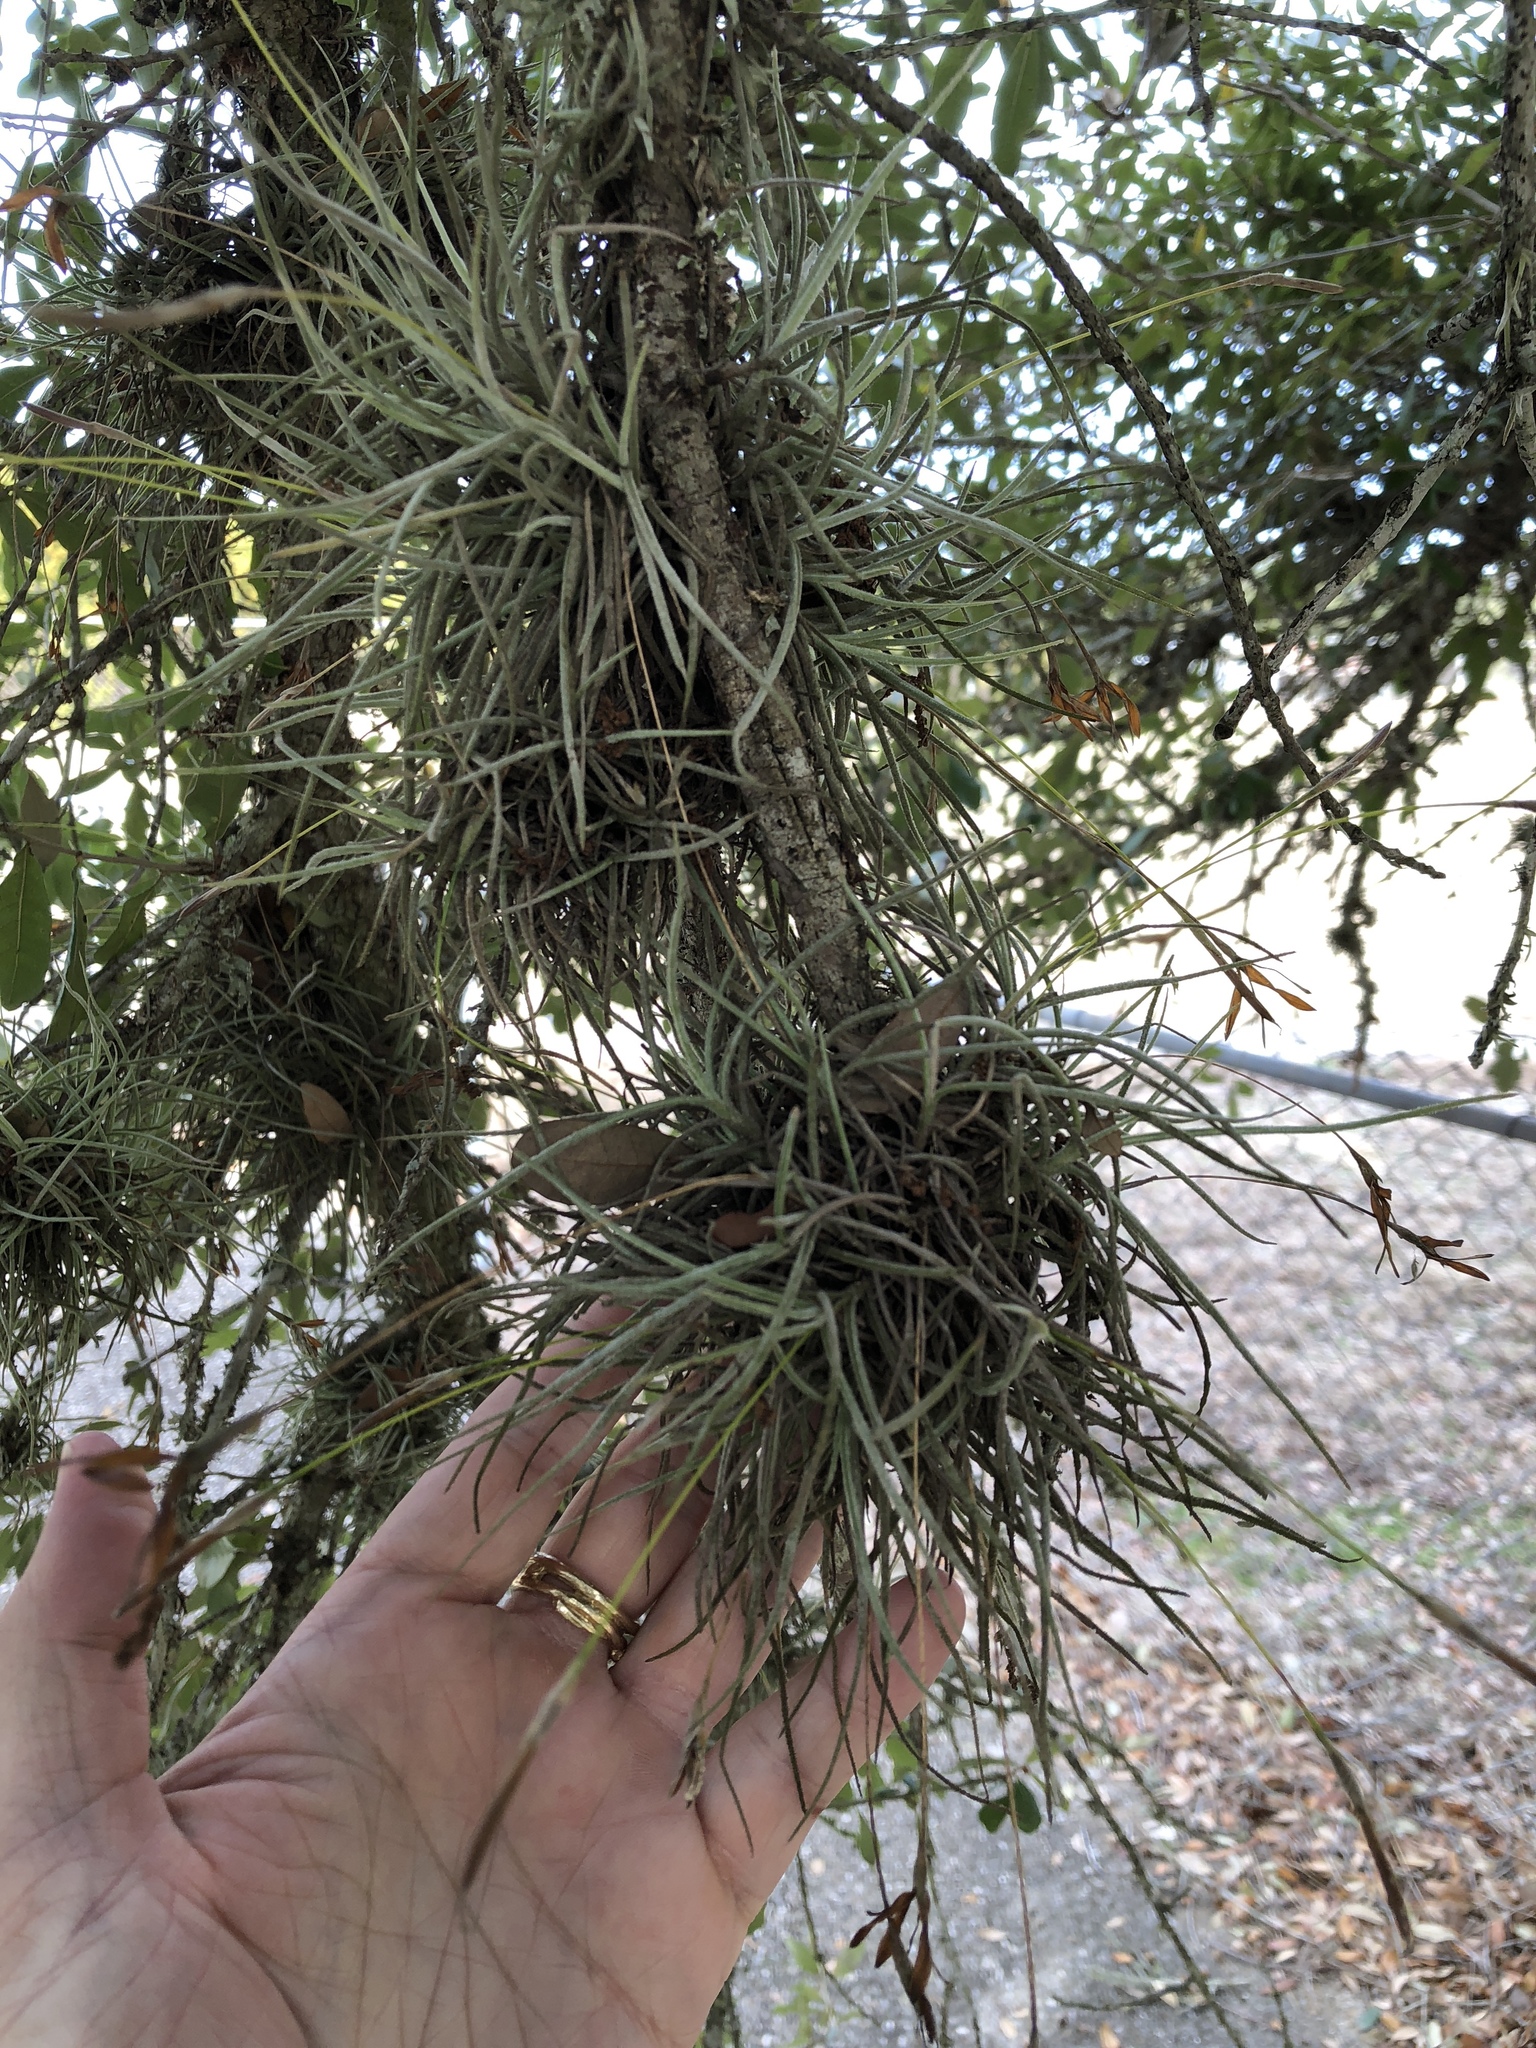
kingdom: Plantae
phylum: Tracheophyta
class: Liliopsida
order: Poales
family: Bromeliaceae
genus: Tillandsia
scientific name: Tillandsia recurvata
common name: Small ballmoss
